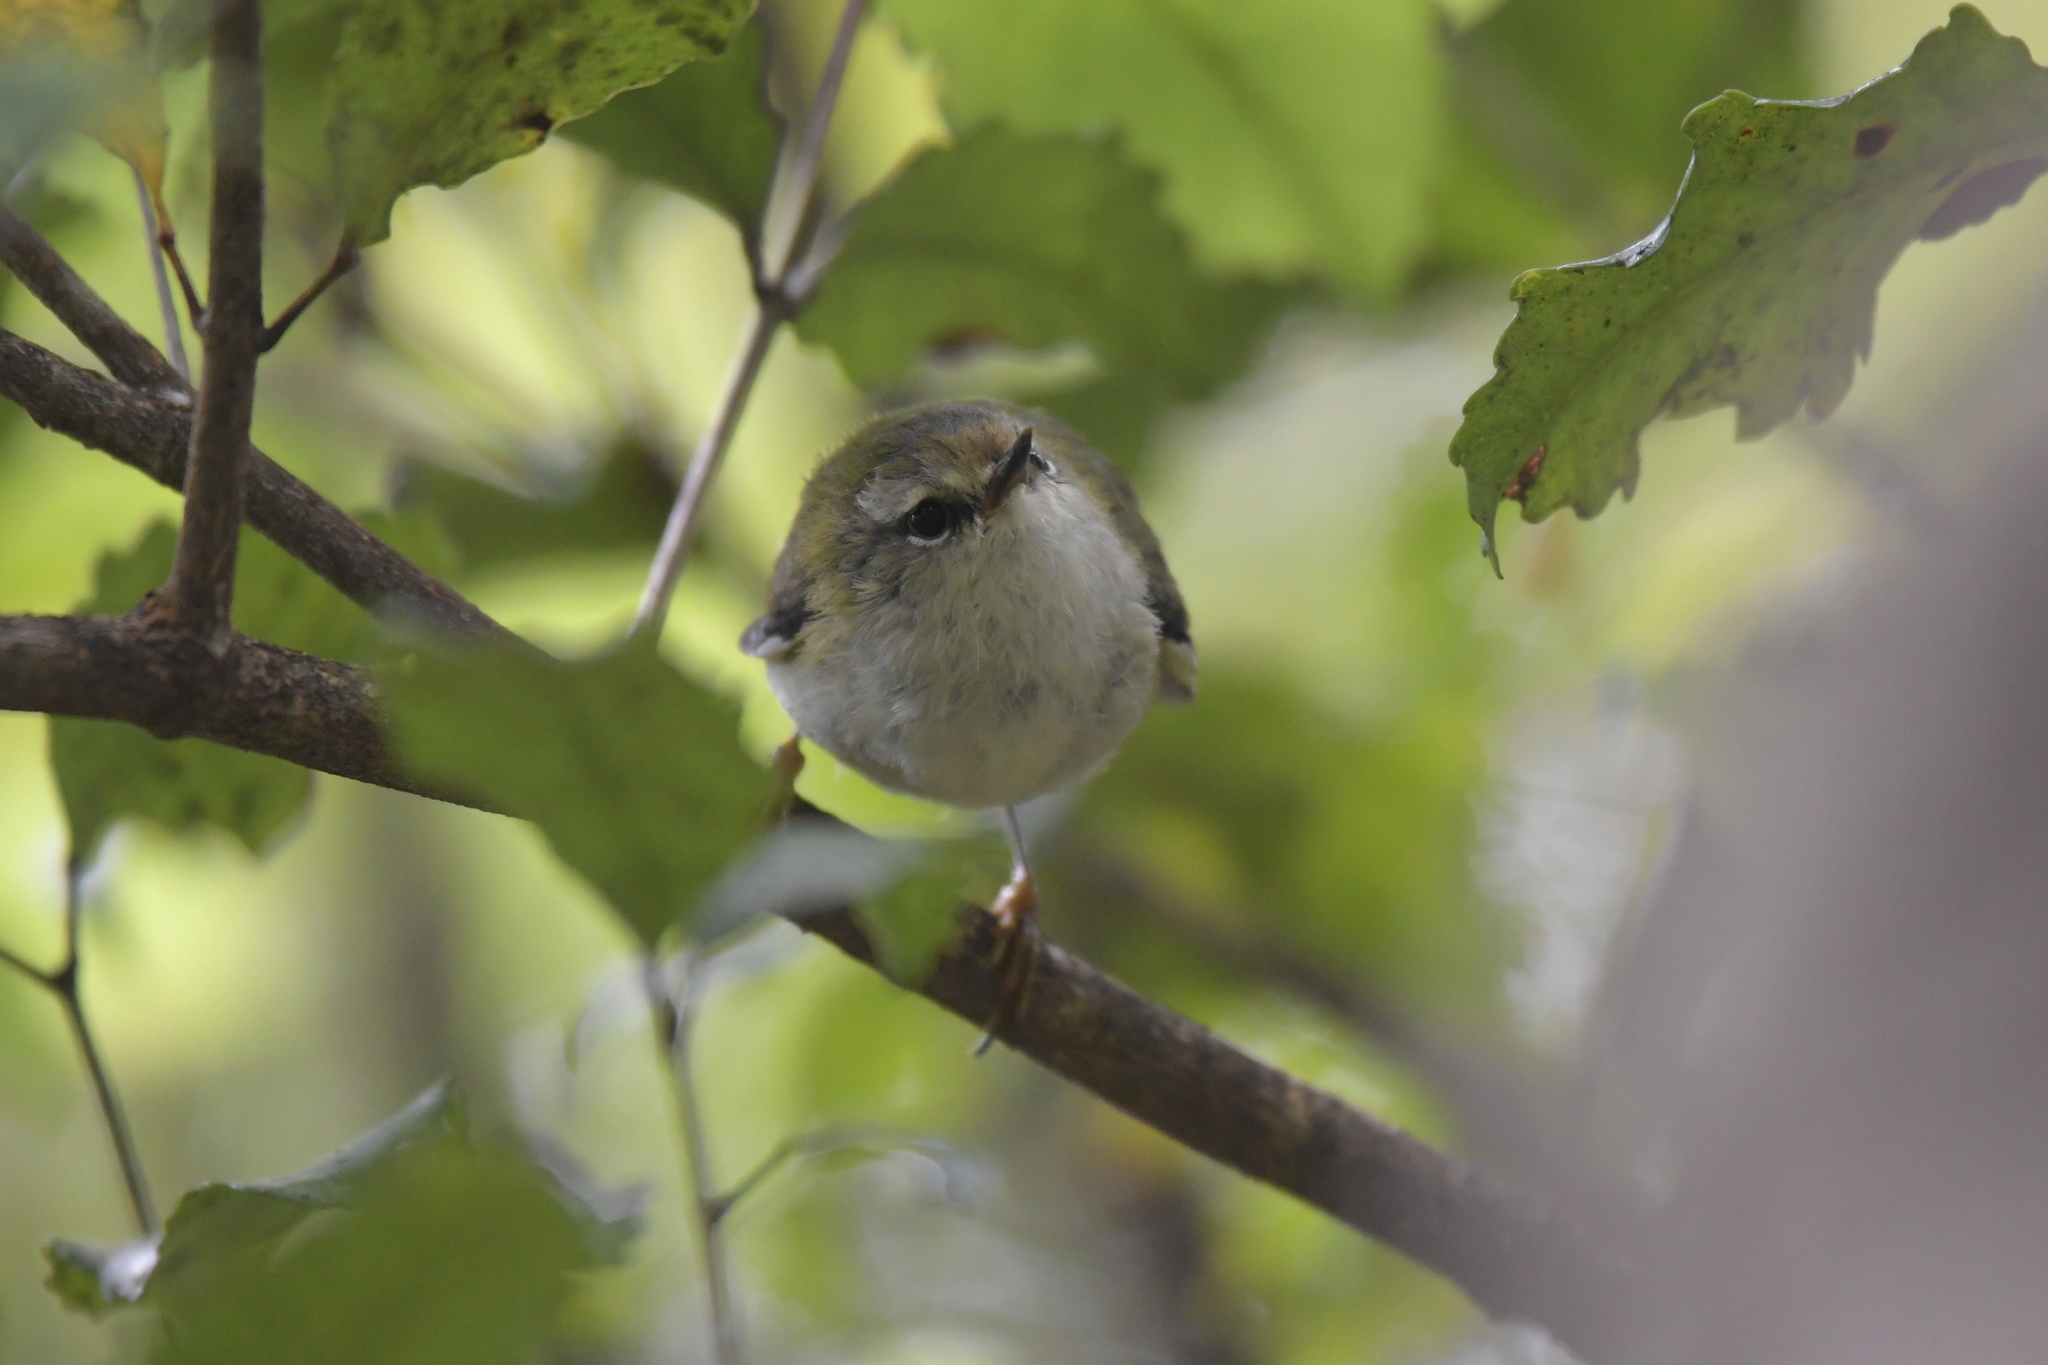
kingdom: Animalia
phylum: Chordata
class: Aves
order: Passeriformes
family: Acanthisittidae
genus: Acanthisitta
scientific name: Acanthisitta chloris
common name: Rifleman
